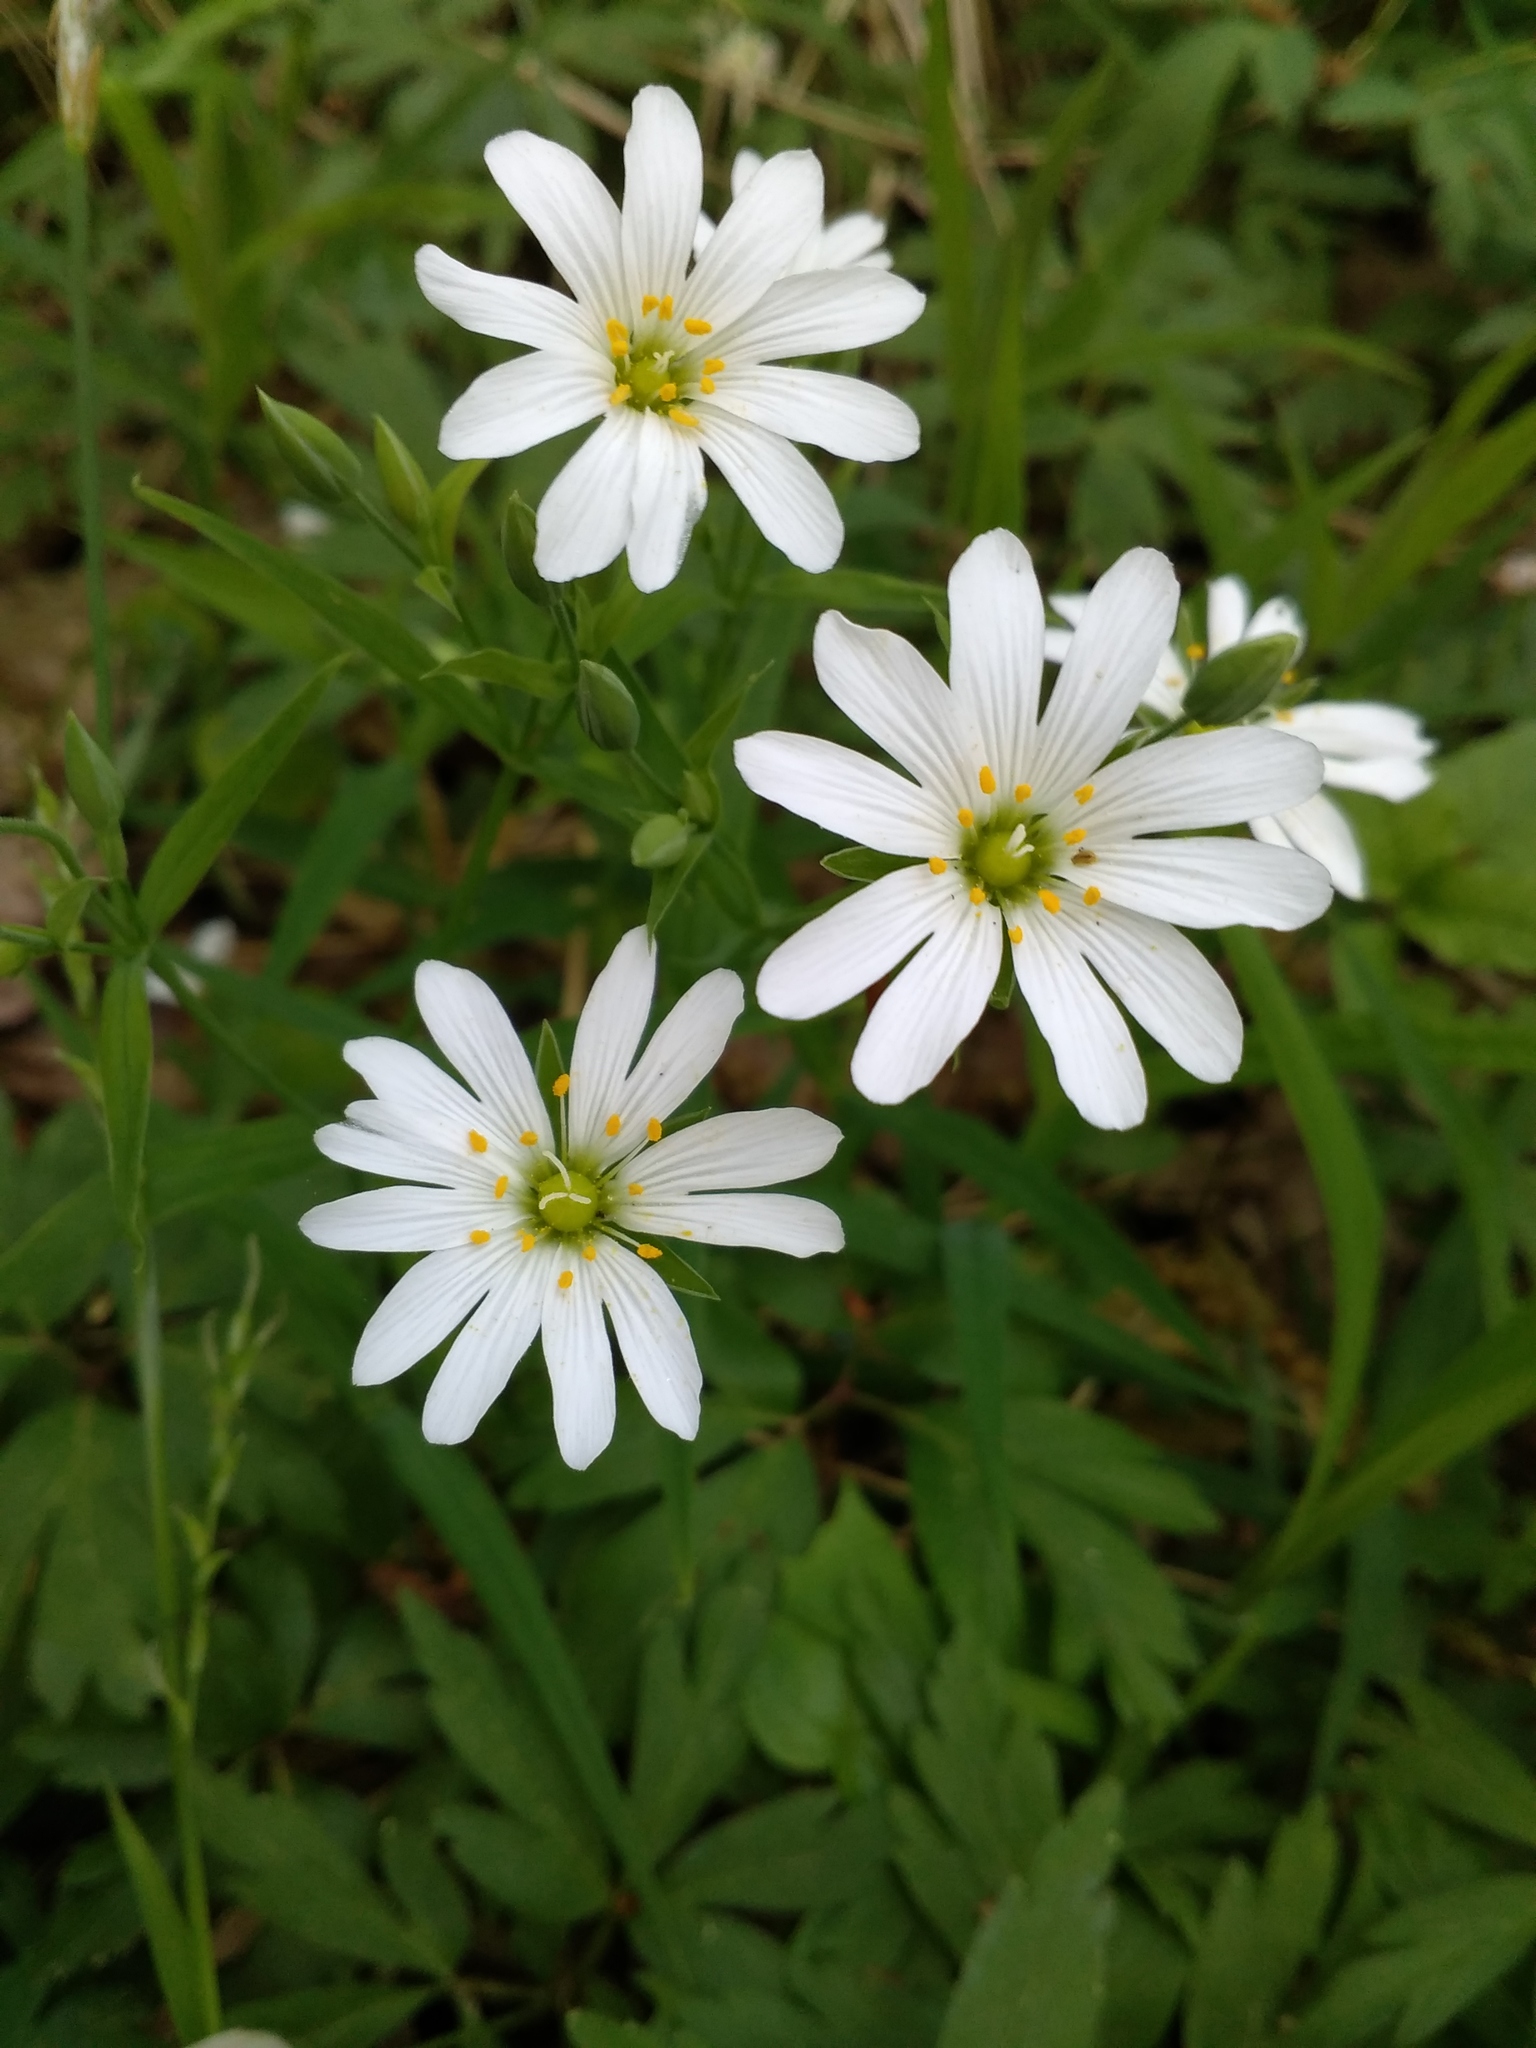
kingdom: Plantae
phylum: Tracheophyta
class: Magnoliopsida
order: Caryophyllales
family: Caryophyllaceae
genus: Rabelera
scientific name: Rabelera holostea
